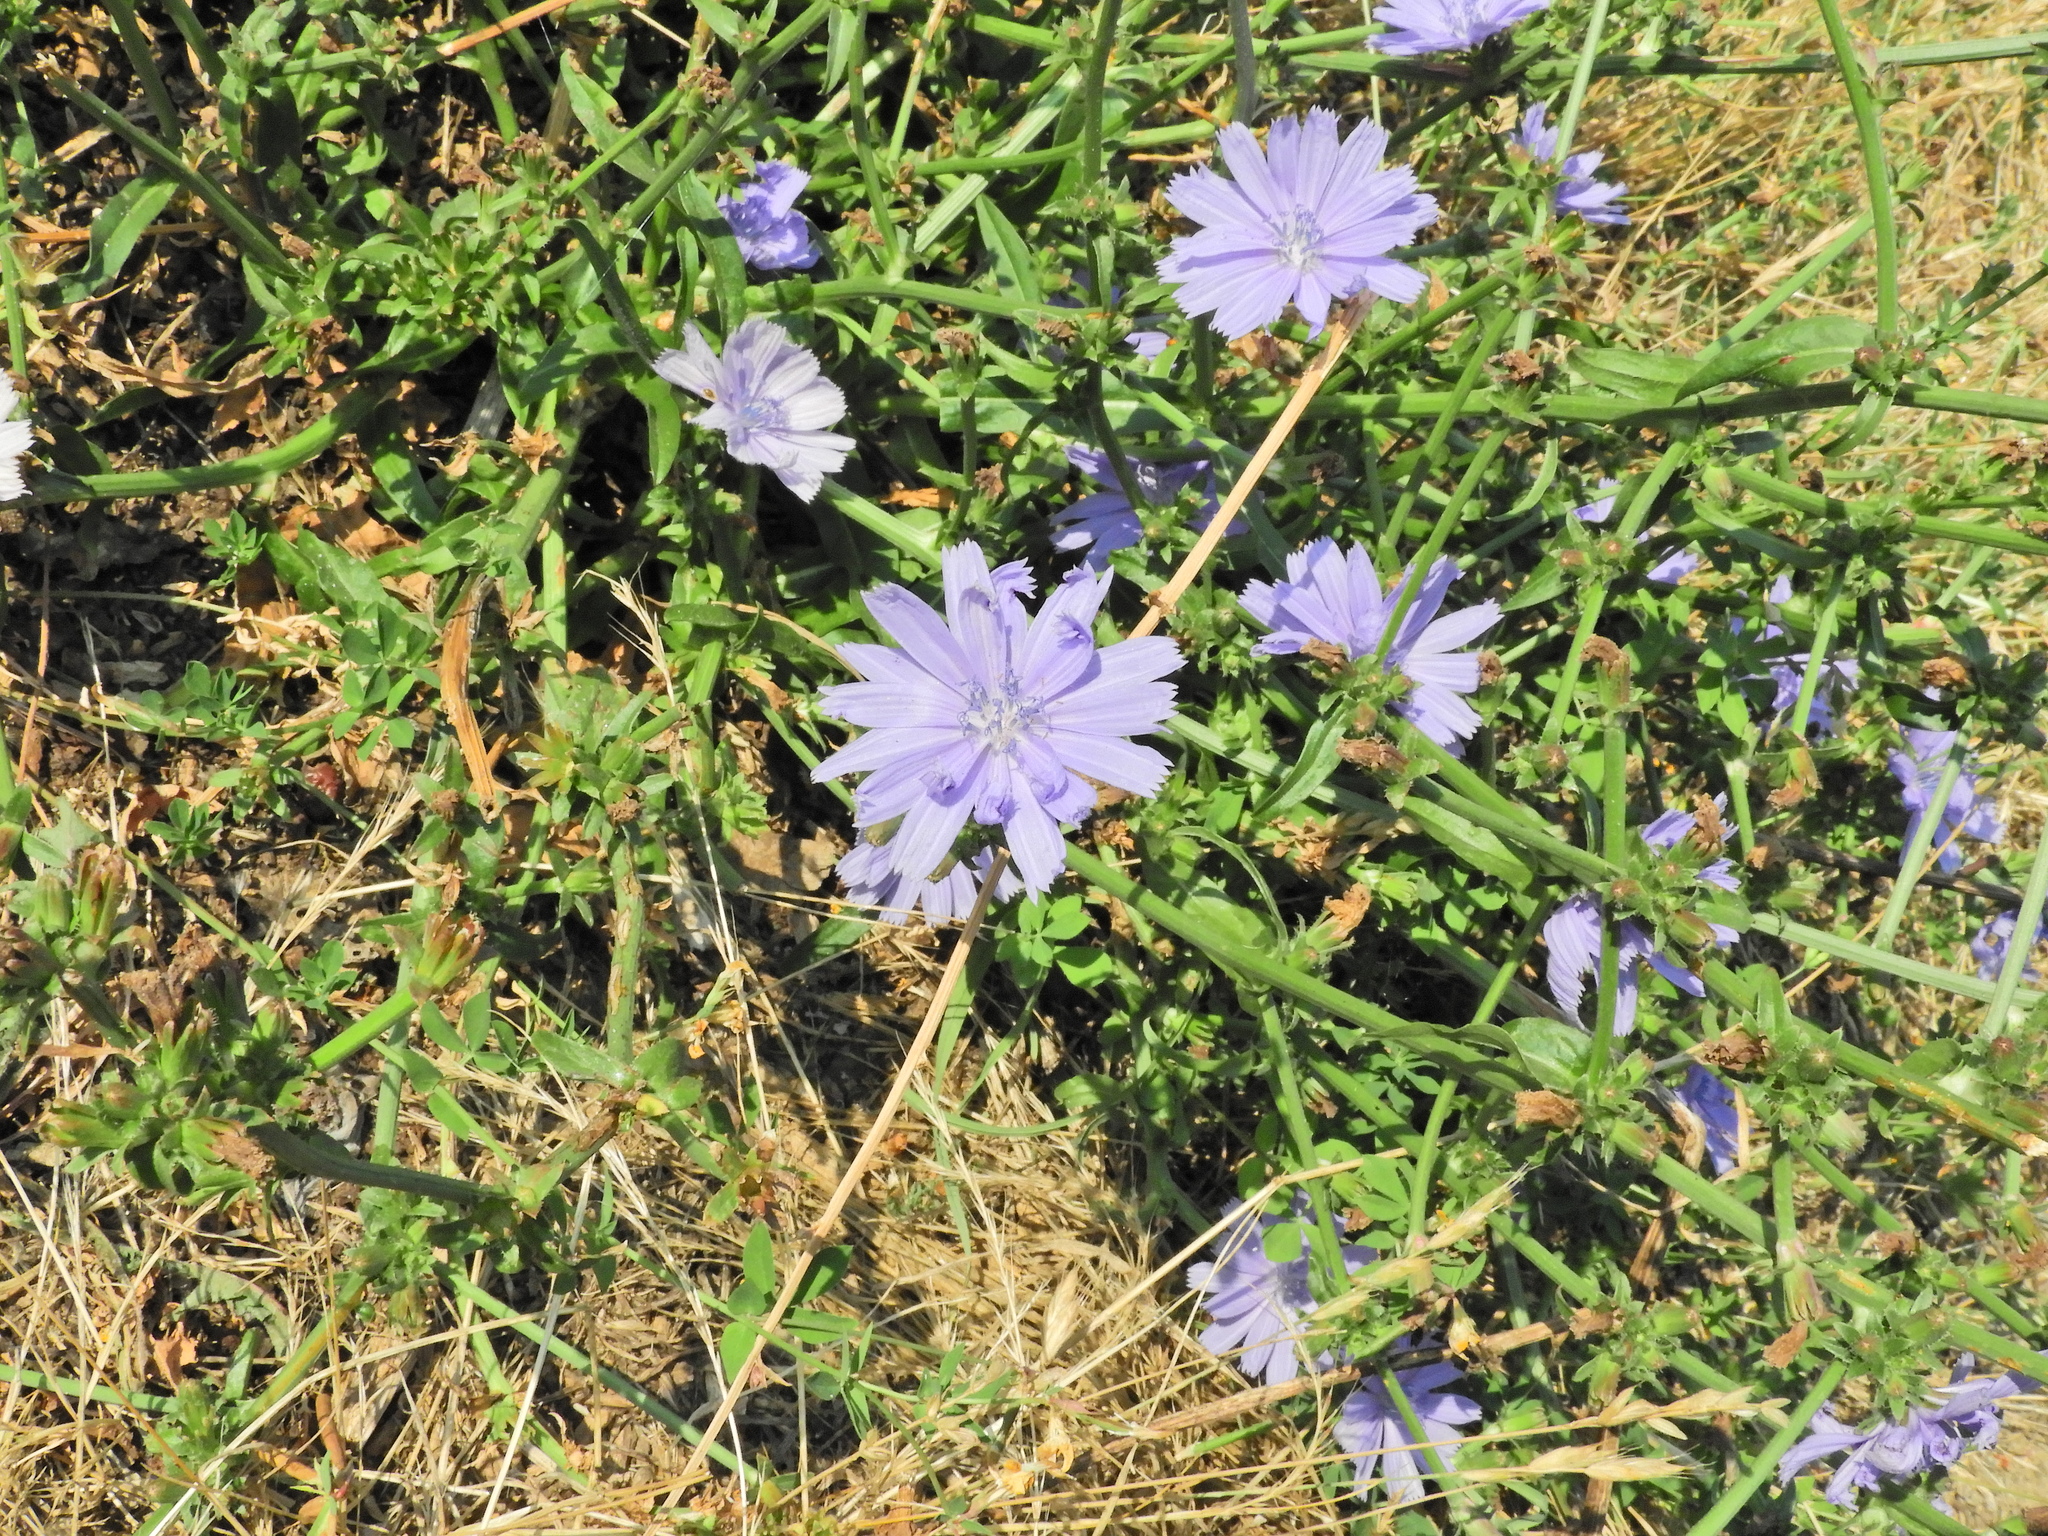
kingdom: Plantae
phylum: Tracheophyta
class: Magnoliopsida
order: Asterales
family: Asteraceae
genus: Cichorium
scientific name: Cichorium intybus
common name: Chicory
